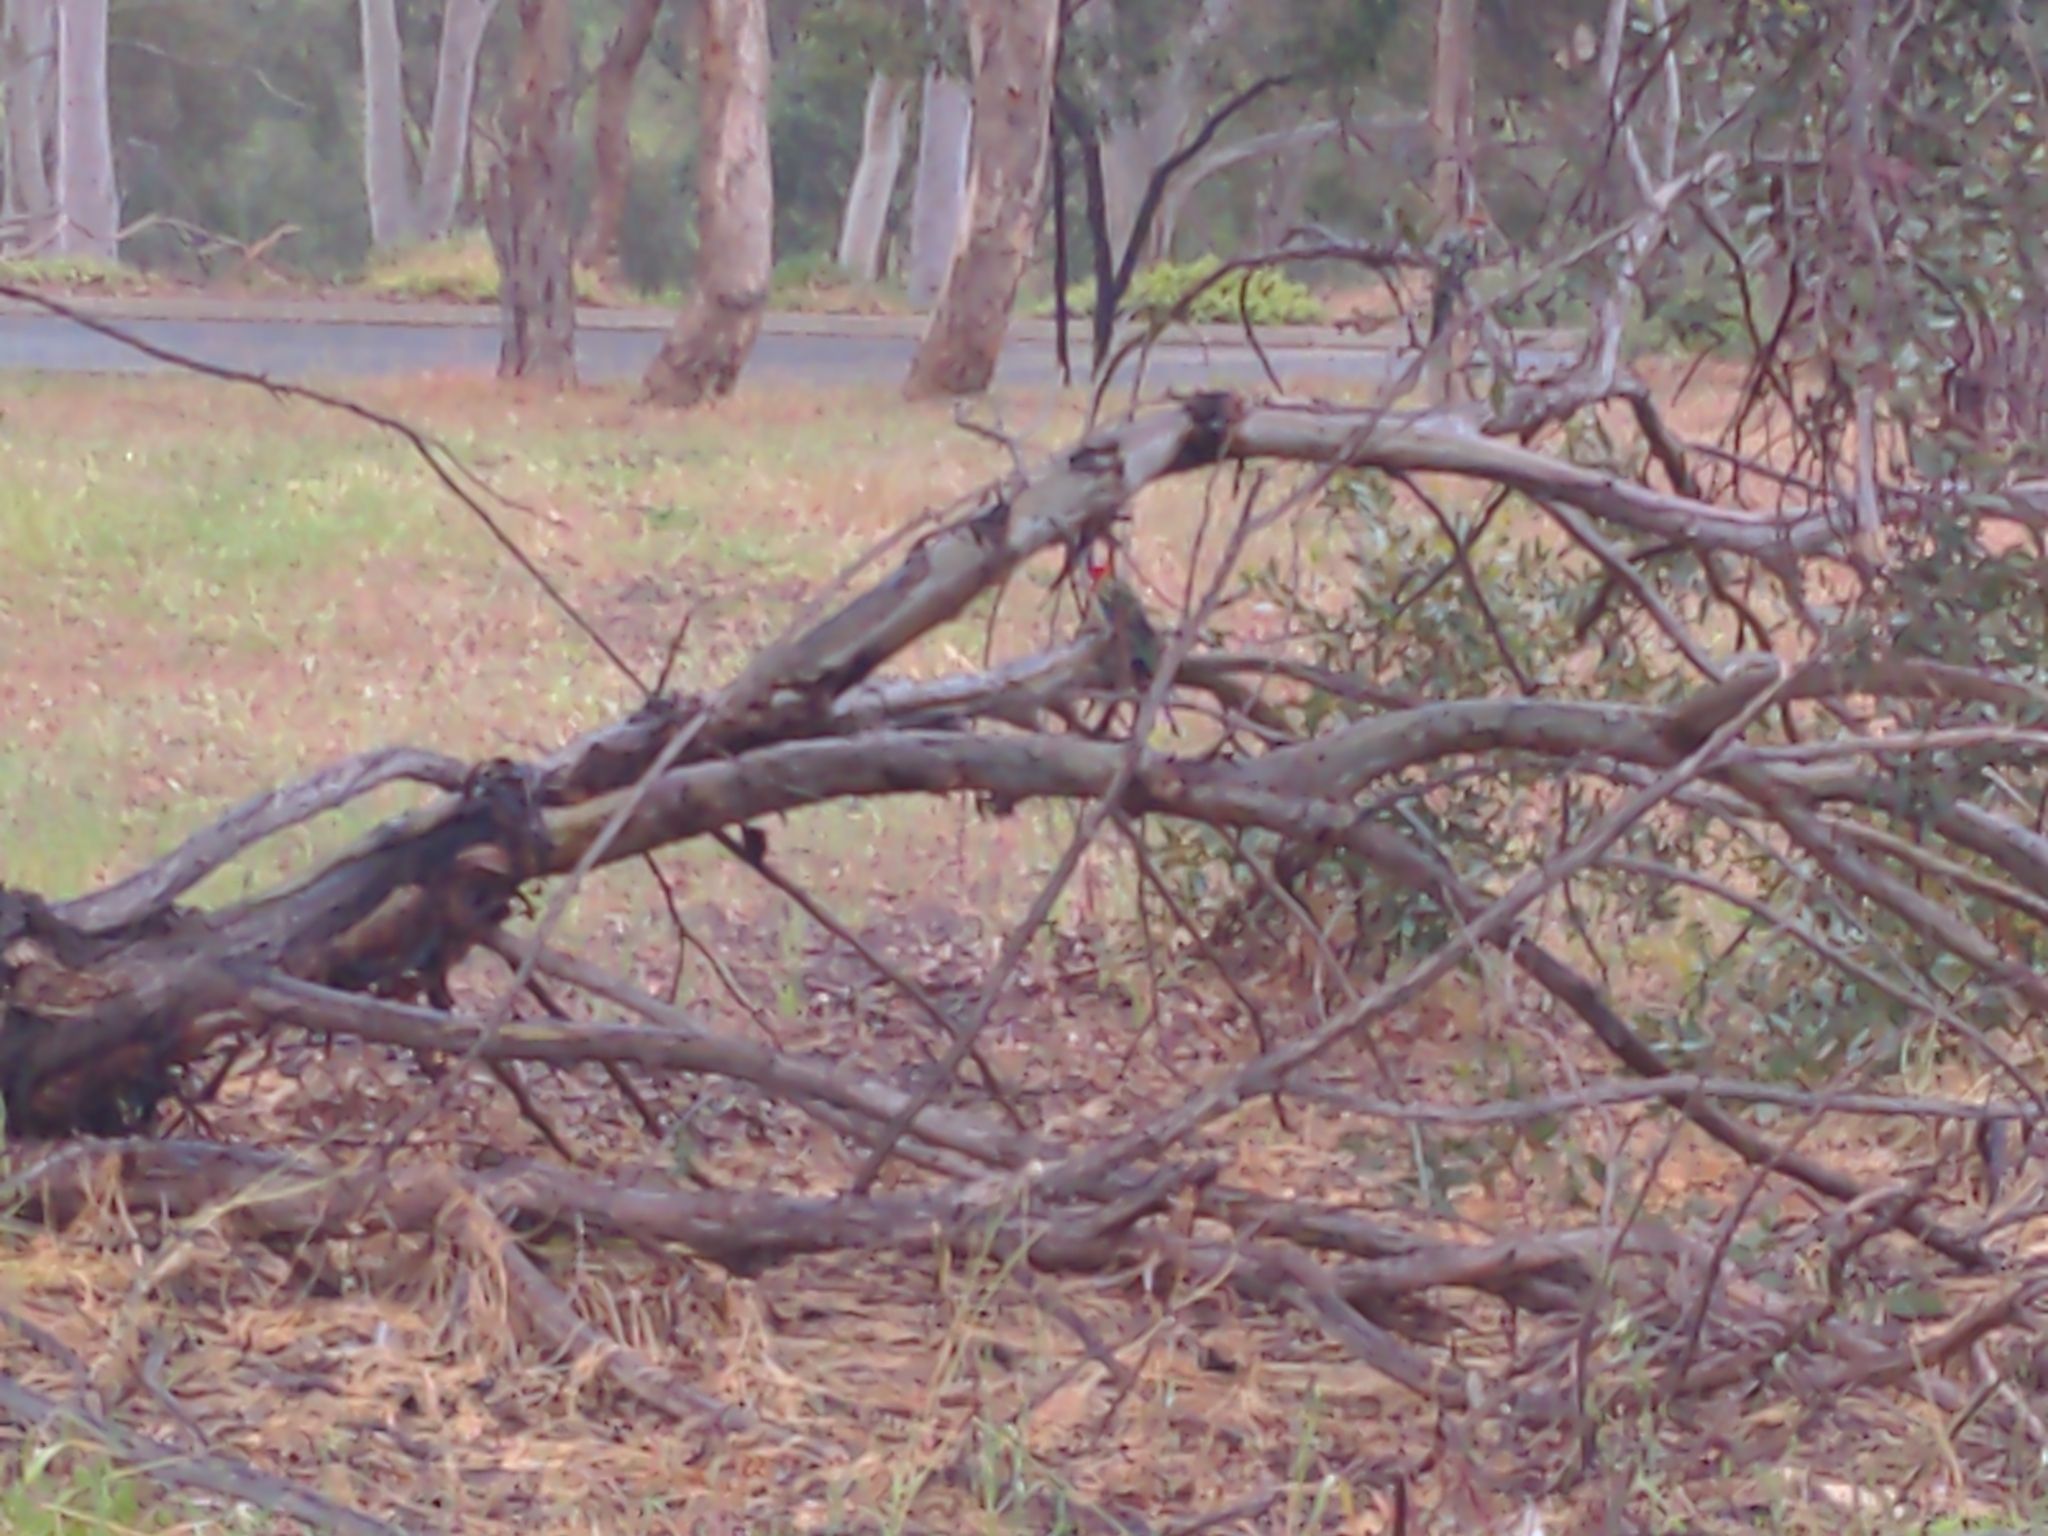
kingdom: Animalia
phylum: Chordata
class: Aves
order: Psittaciformes
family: Psittacidae
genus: Platycercus
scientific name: Platycercus eximius
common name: Eastern rosella
